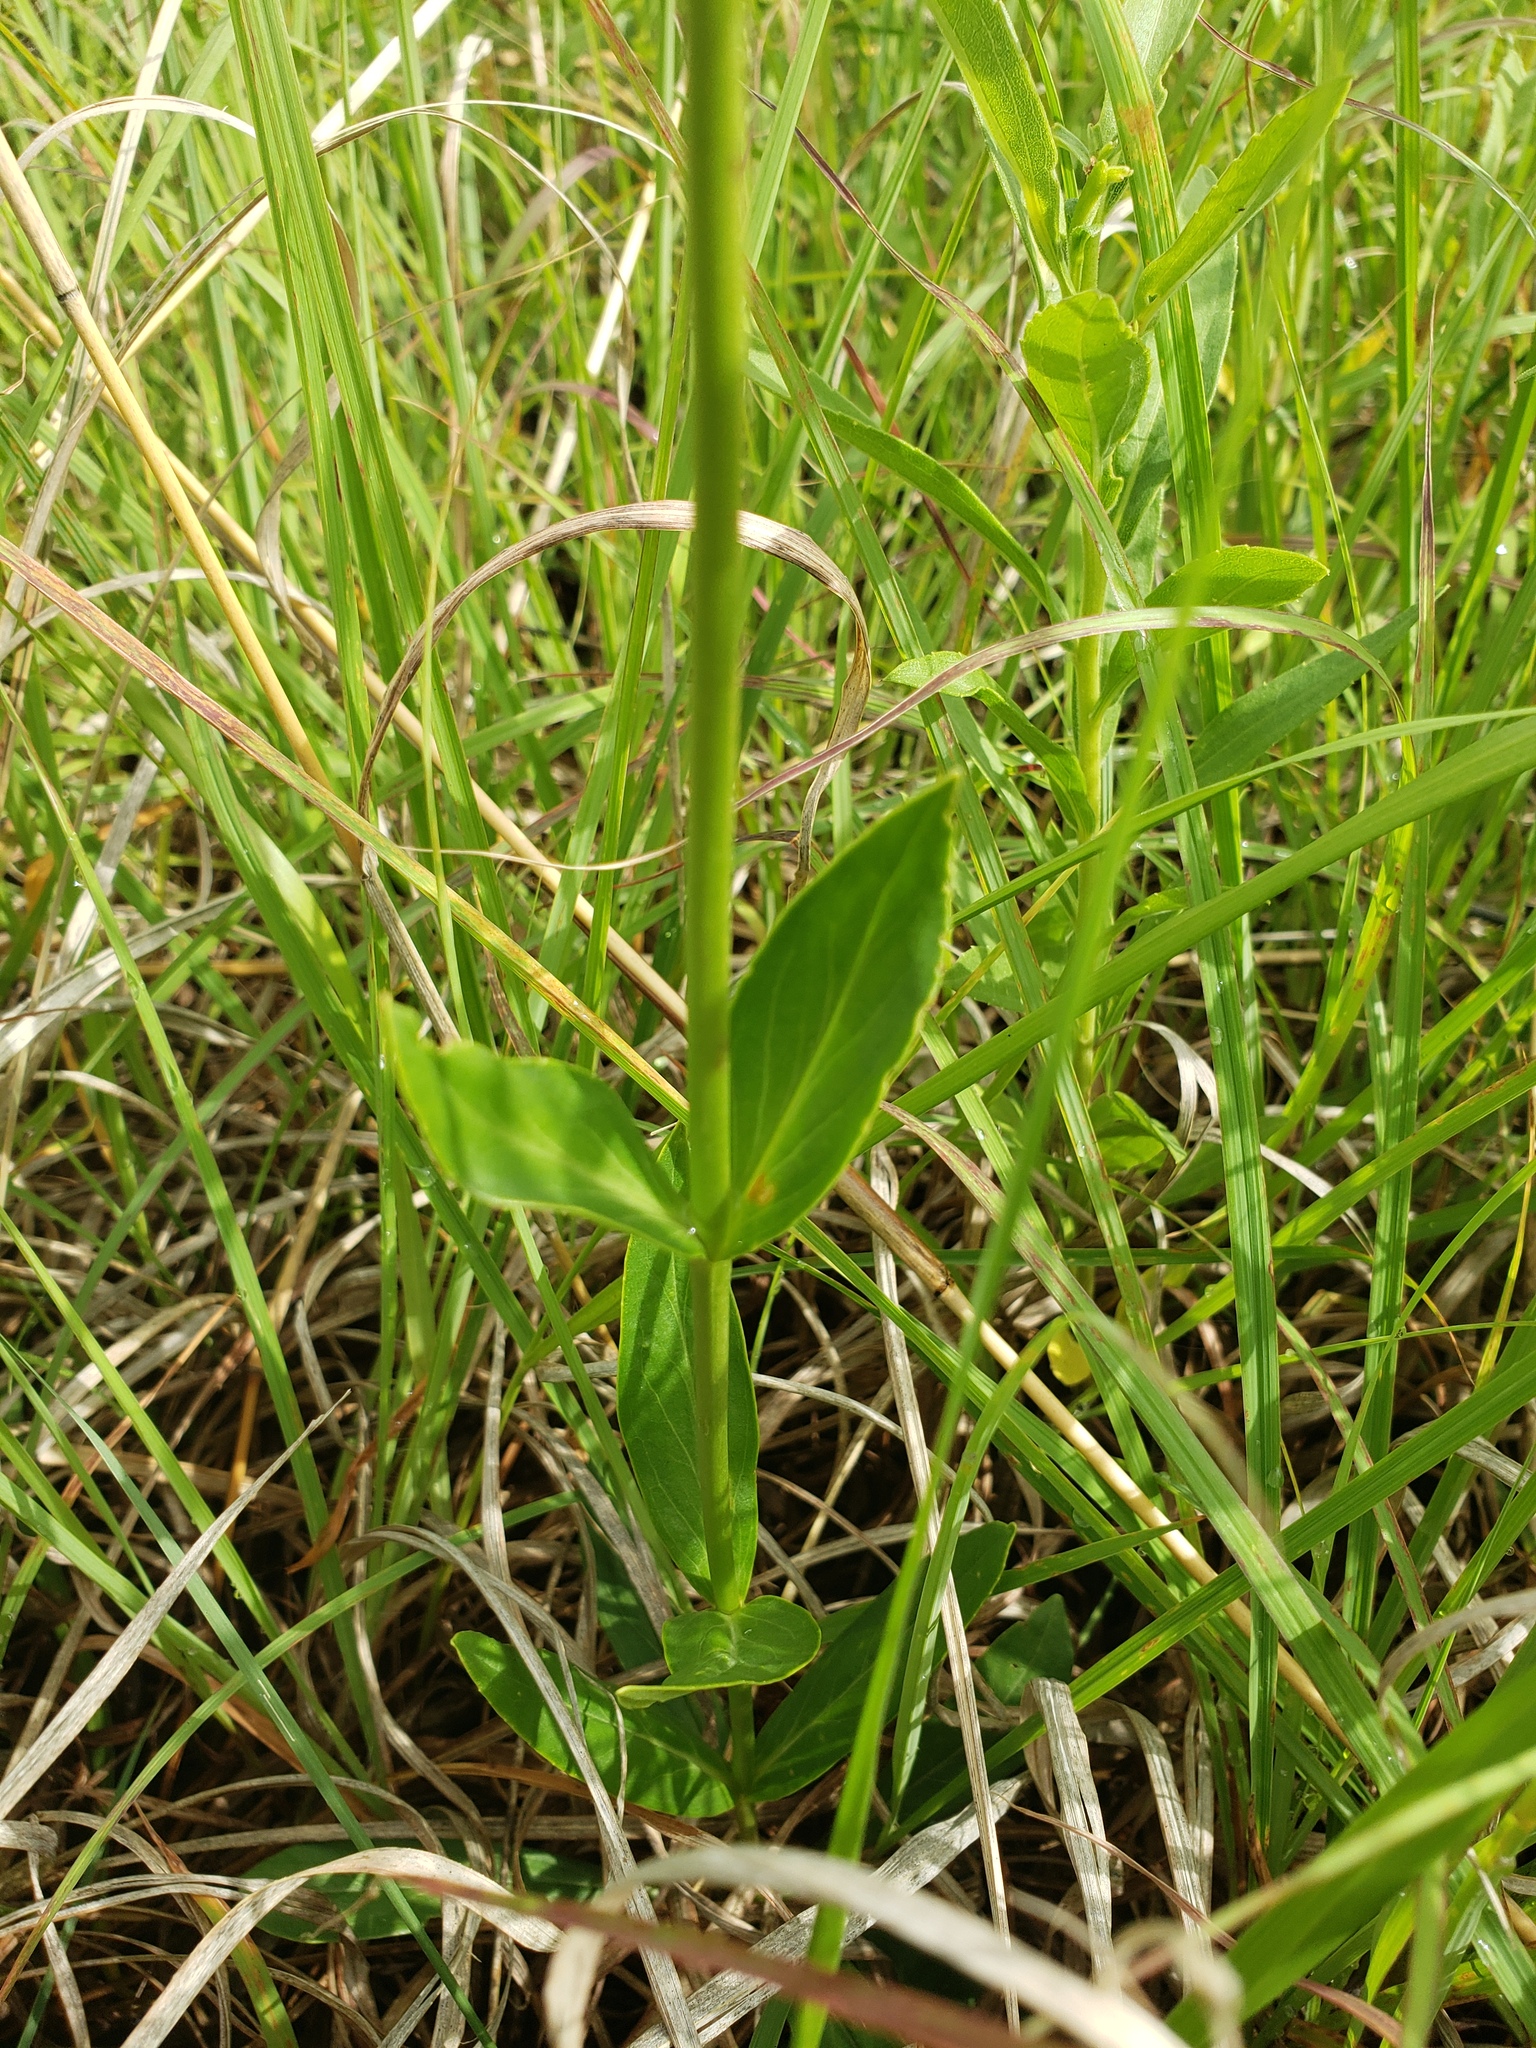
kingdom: Plantae
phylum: Tracheophyta
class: Magnoliopsida
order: Lamiales
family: Plantaginaceae
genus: Penstemon
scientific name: Penstemon tubaeflorus
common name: White wand beardtongue
